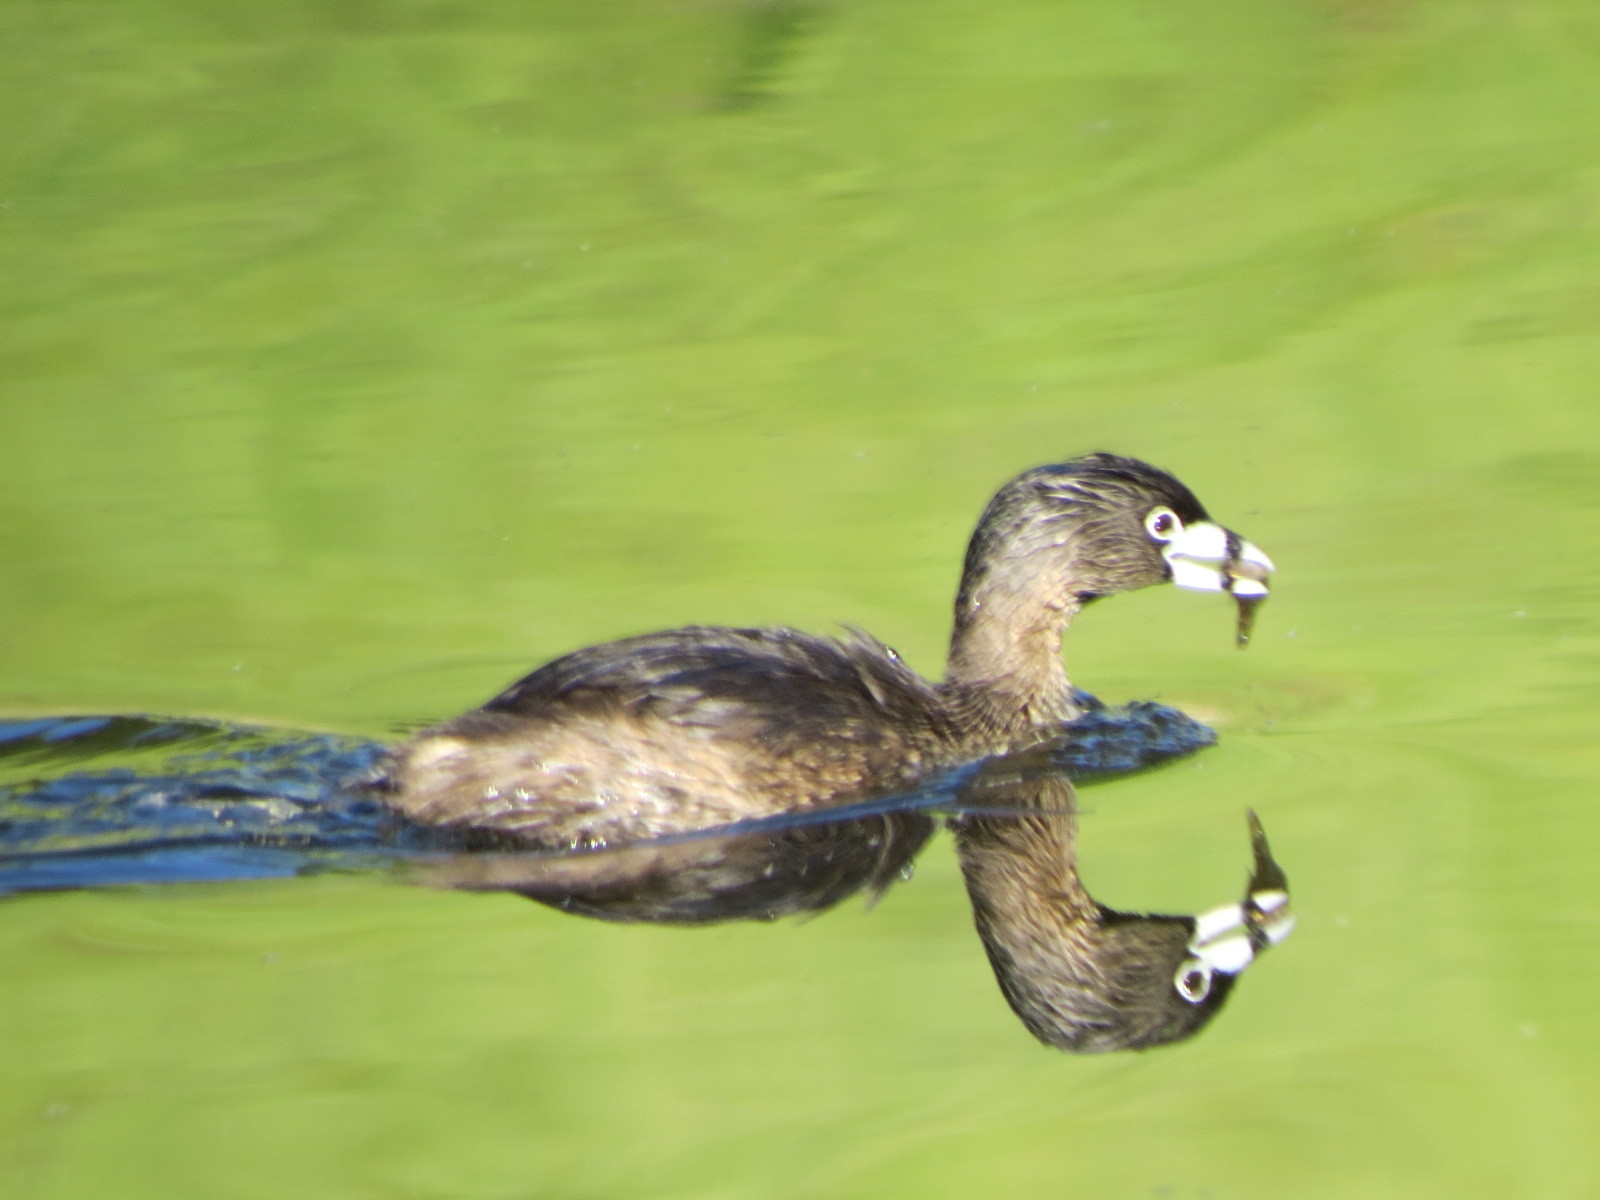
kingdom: Animalia
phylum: Chordata
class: Aves
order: Podicipediformes
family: Podicipedidae
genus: Podilymbus
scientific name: Podilymbus podiceps
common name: Pied-billed grebe
